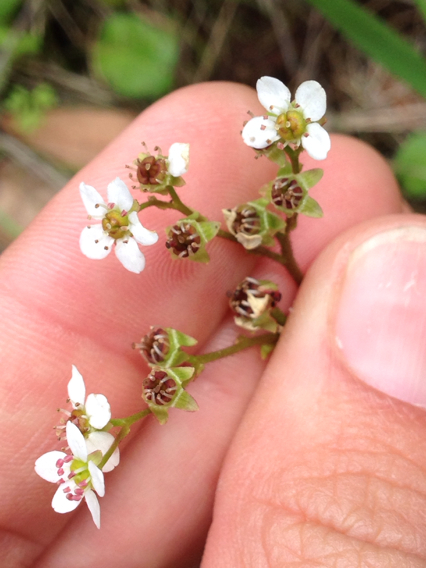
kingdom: Plantae
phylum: Tracheophyta
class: Magnoliopsida
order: Saxifragales
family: Saxifragaceae
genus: Micranthes
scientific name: Micranthes californica
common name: California saxifrage
